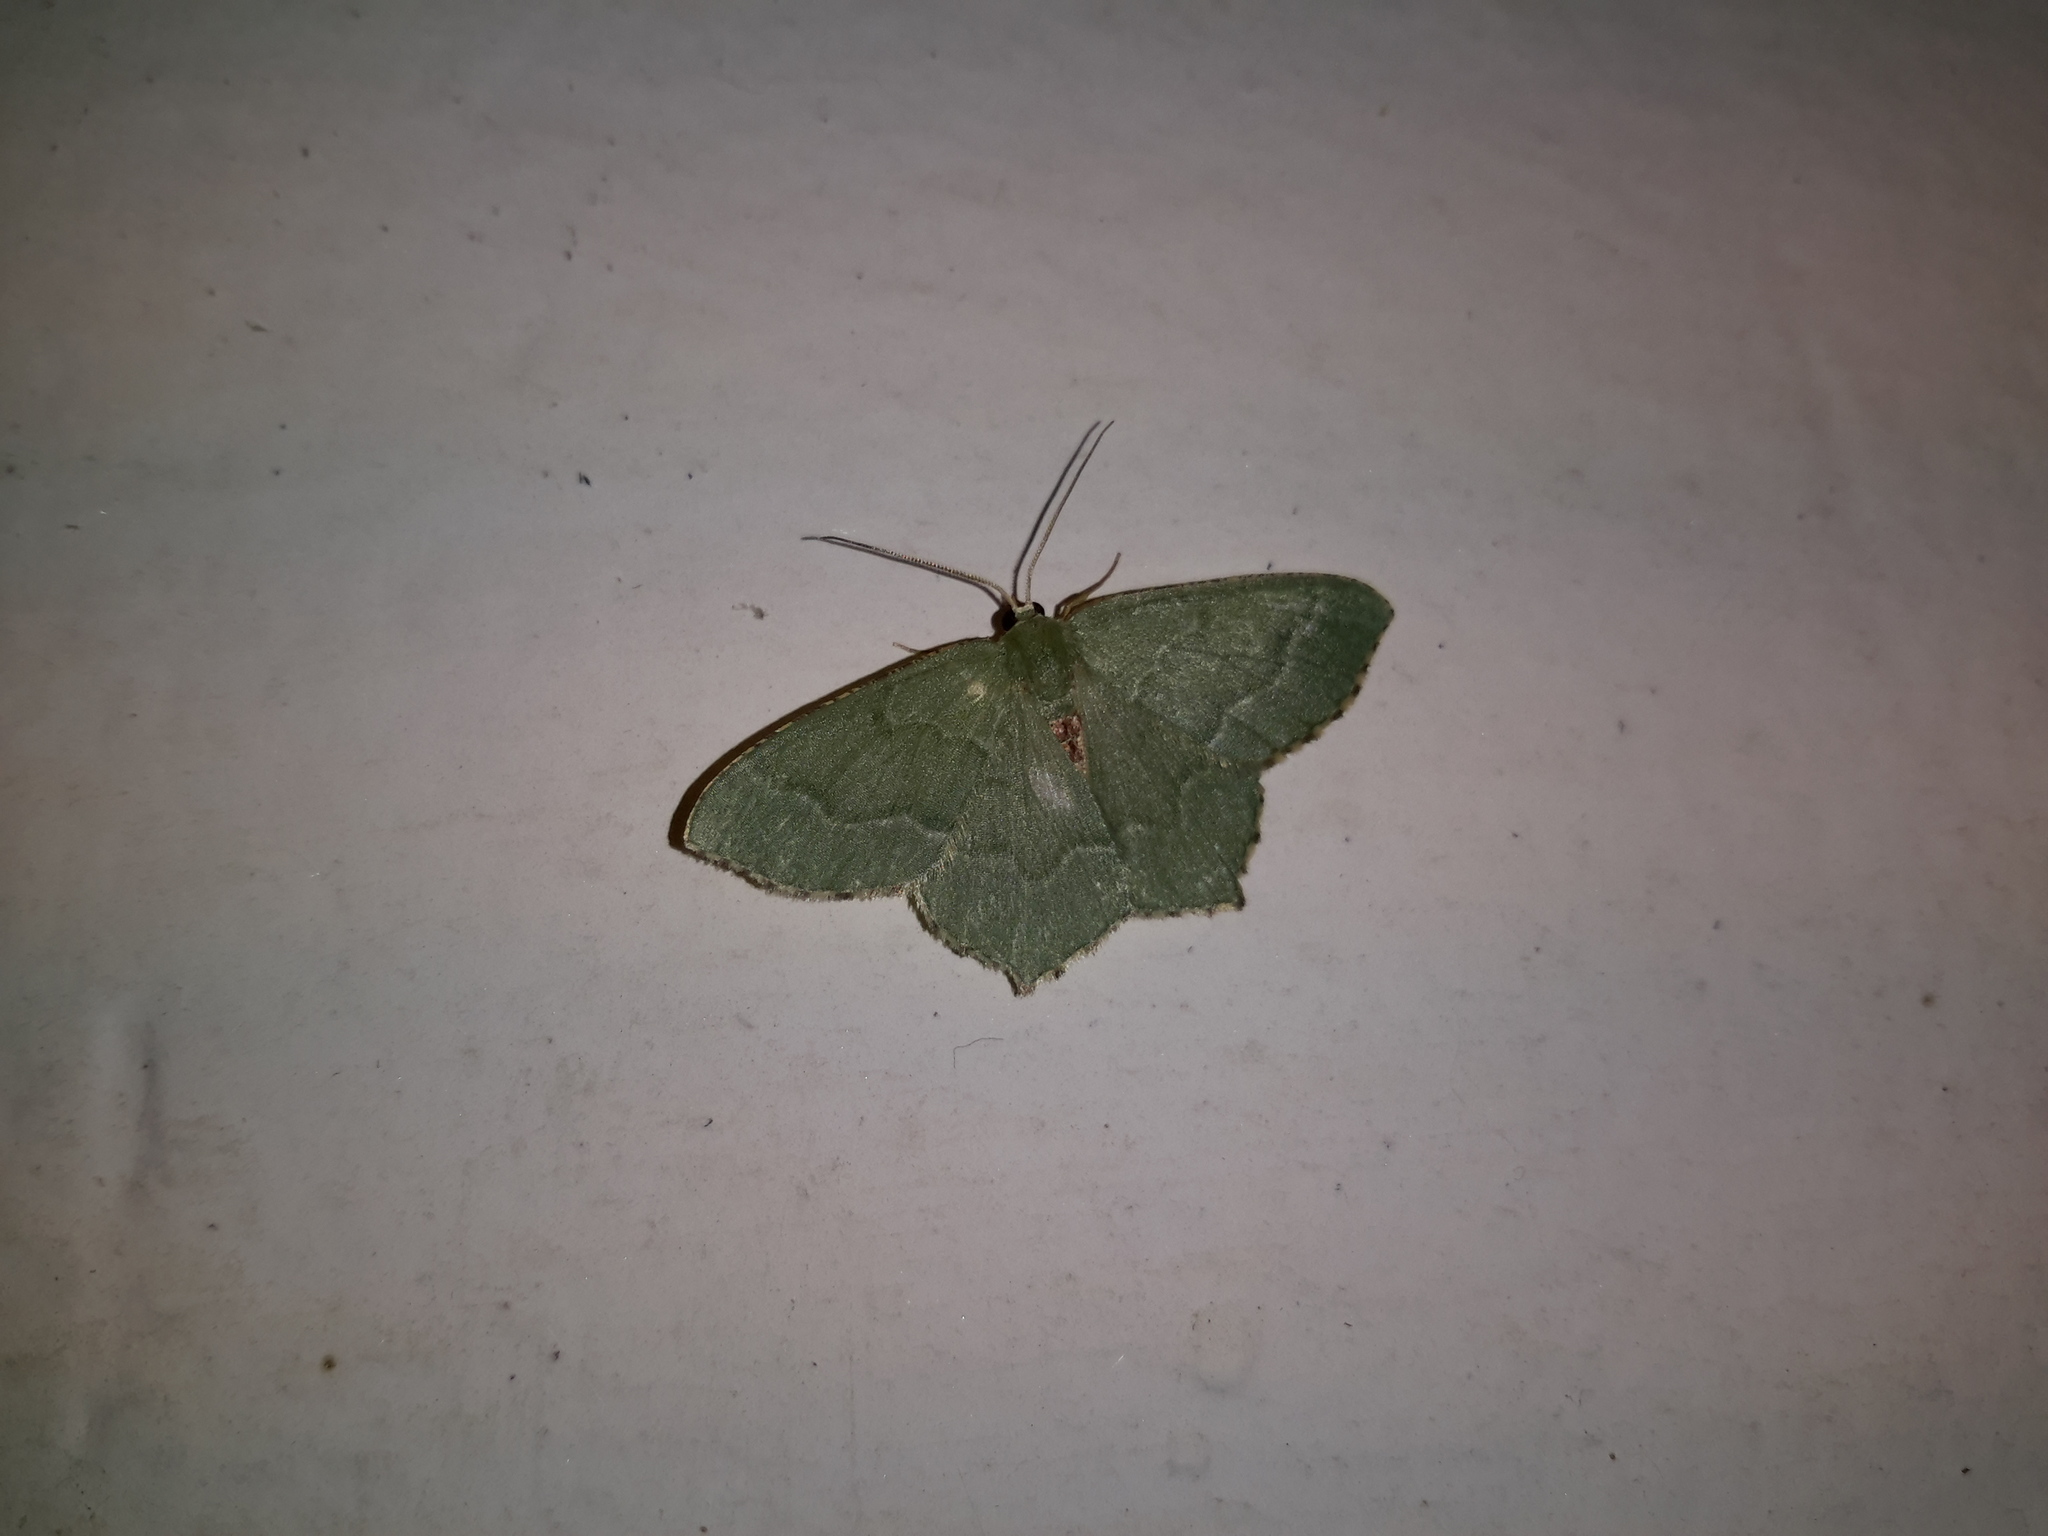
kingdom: Animalia
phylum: Arthropoda
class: Insecta
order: Lepidoptera
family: Geometridae
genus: Hemithea
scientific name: Hemithea aestivaria
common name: Common emerald
